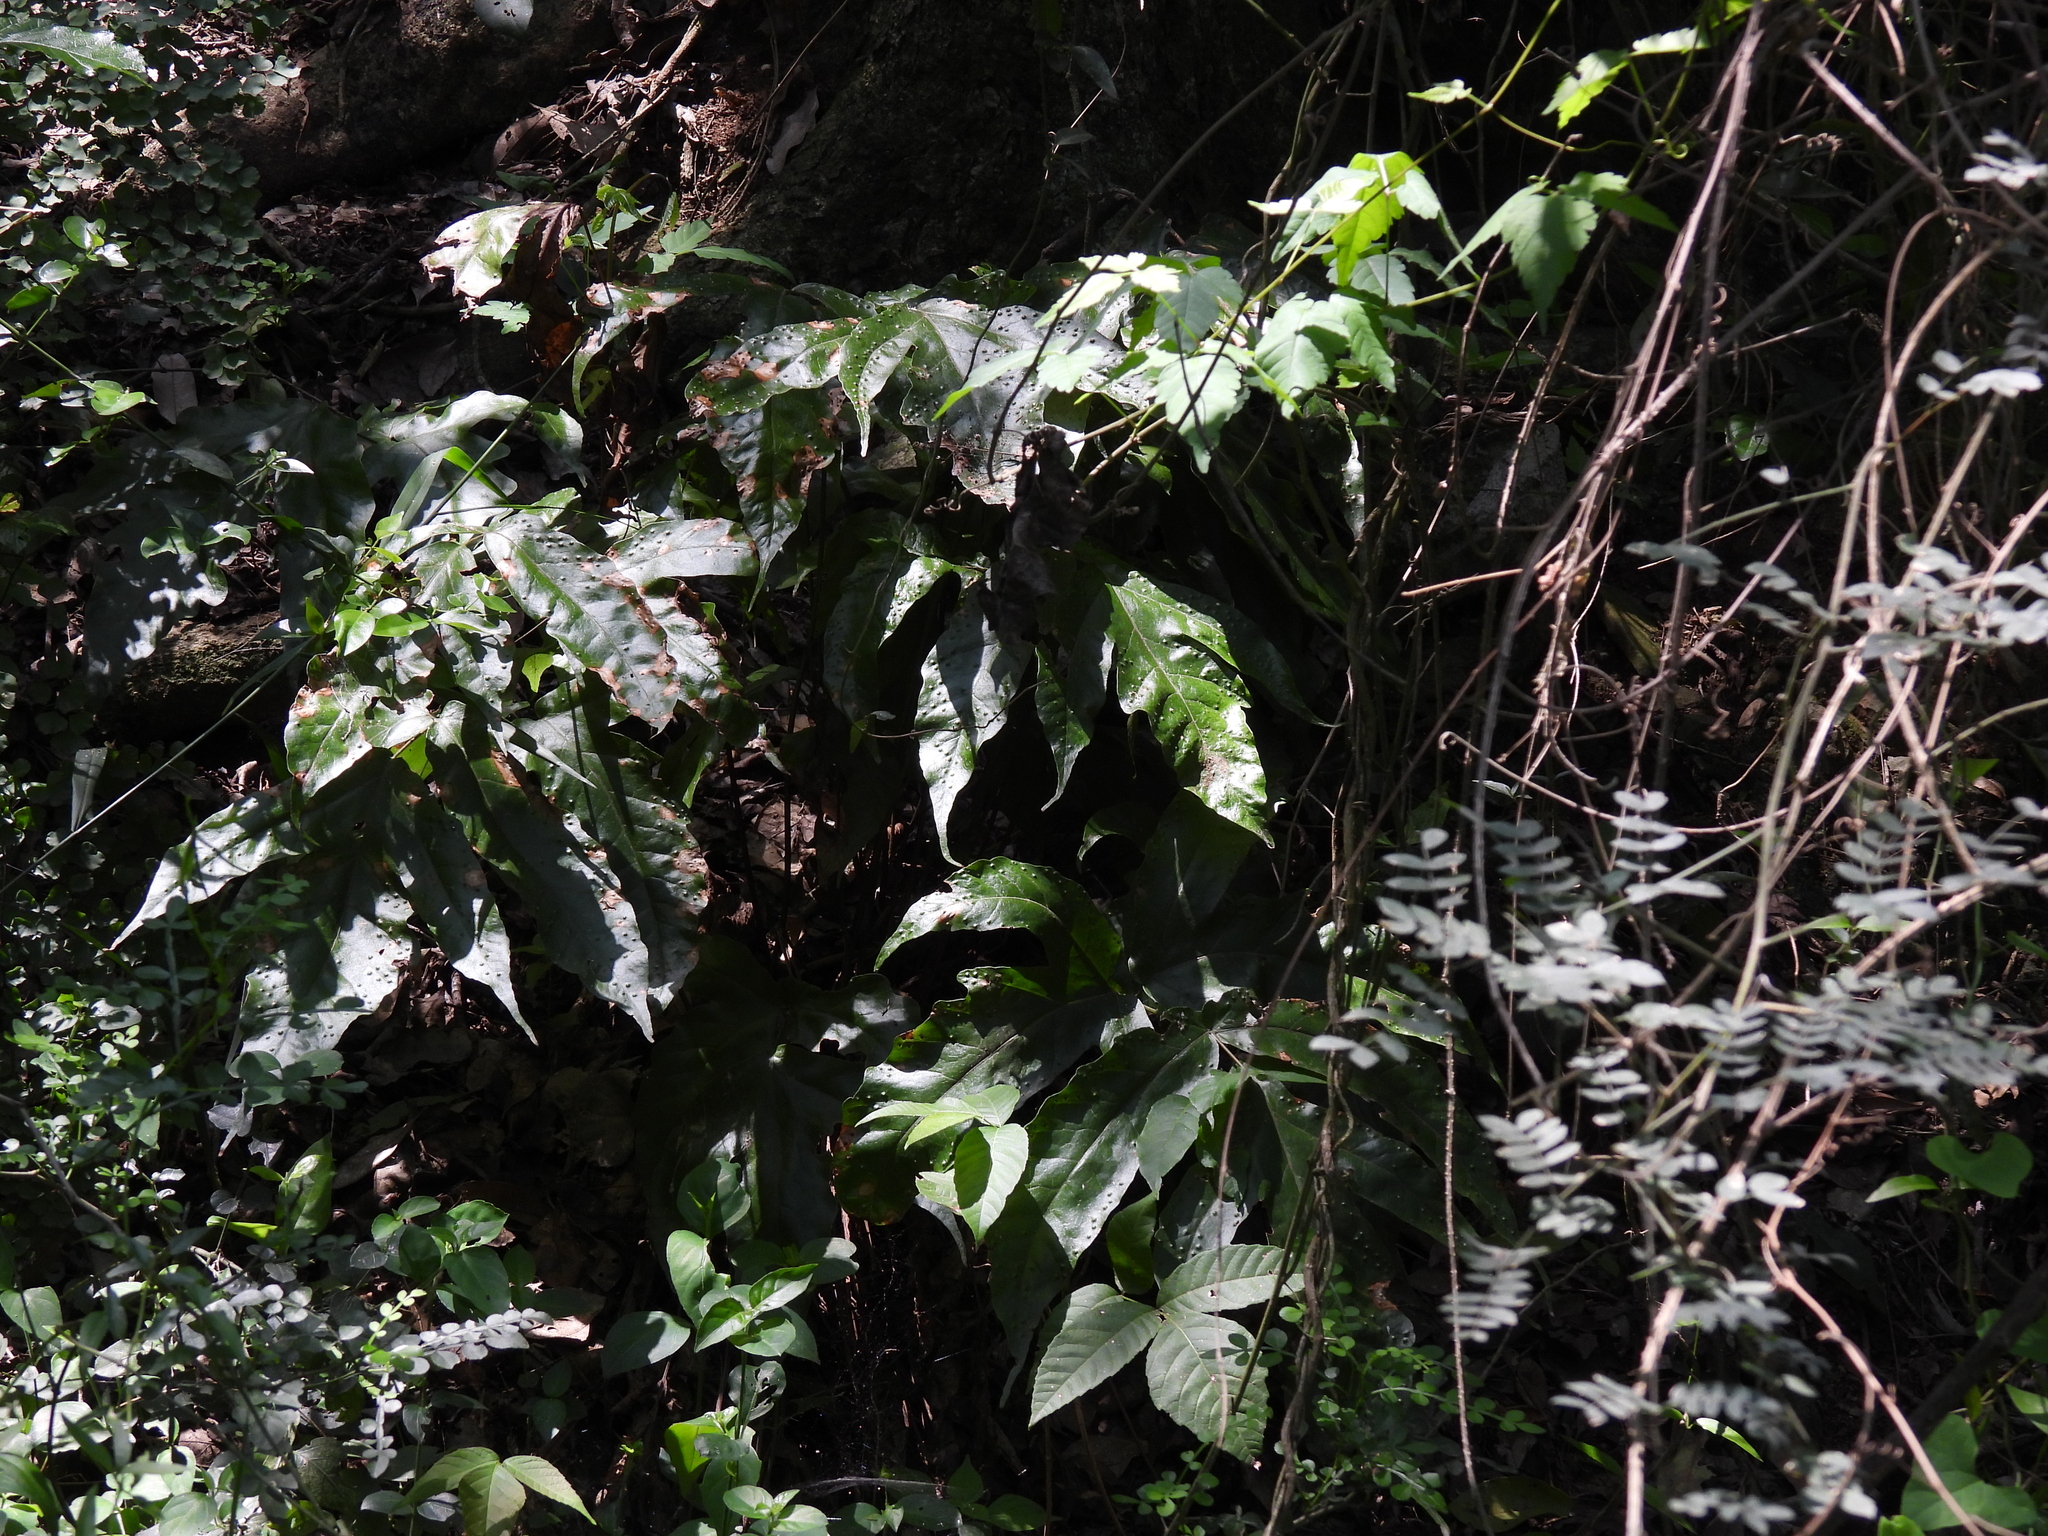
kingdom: Plantae
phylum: Tracheophyta
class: Polypodiopsida
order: Polypodiales
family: Tectariaceae
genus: Tectaria
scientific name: Tectaria heracleifolia
